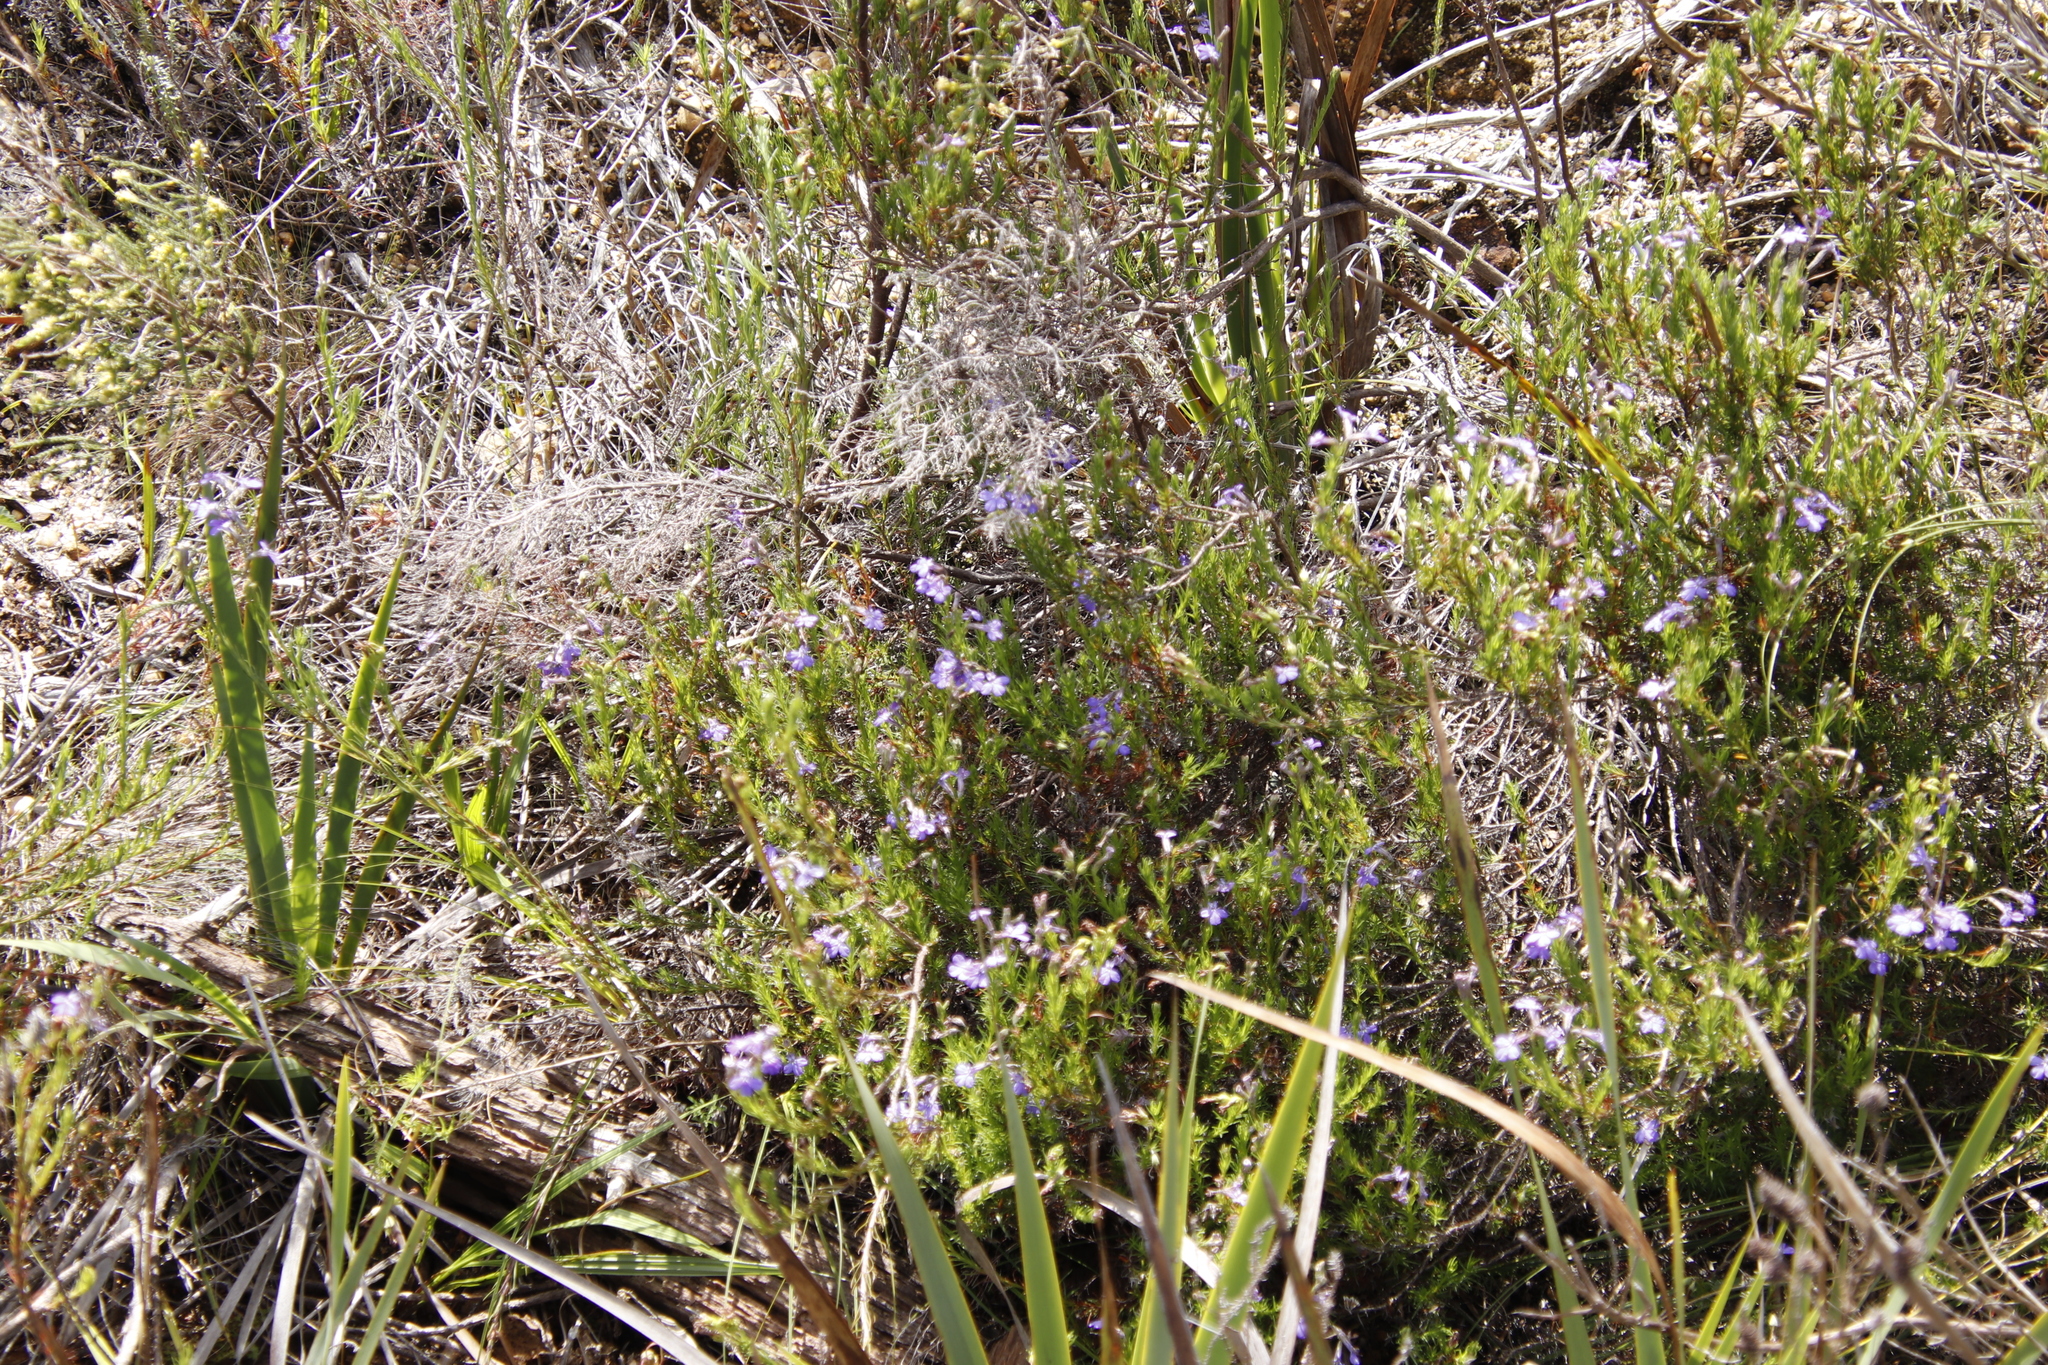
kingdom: Plantae
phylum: Tracheophyta
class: Magnoliopsida
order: Asterales
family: Campanulaceae
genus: Lobelia
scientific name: Lobelia pinifolia
